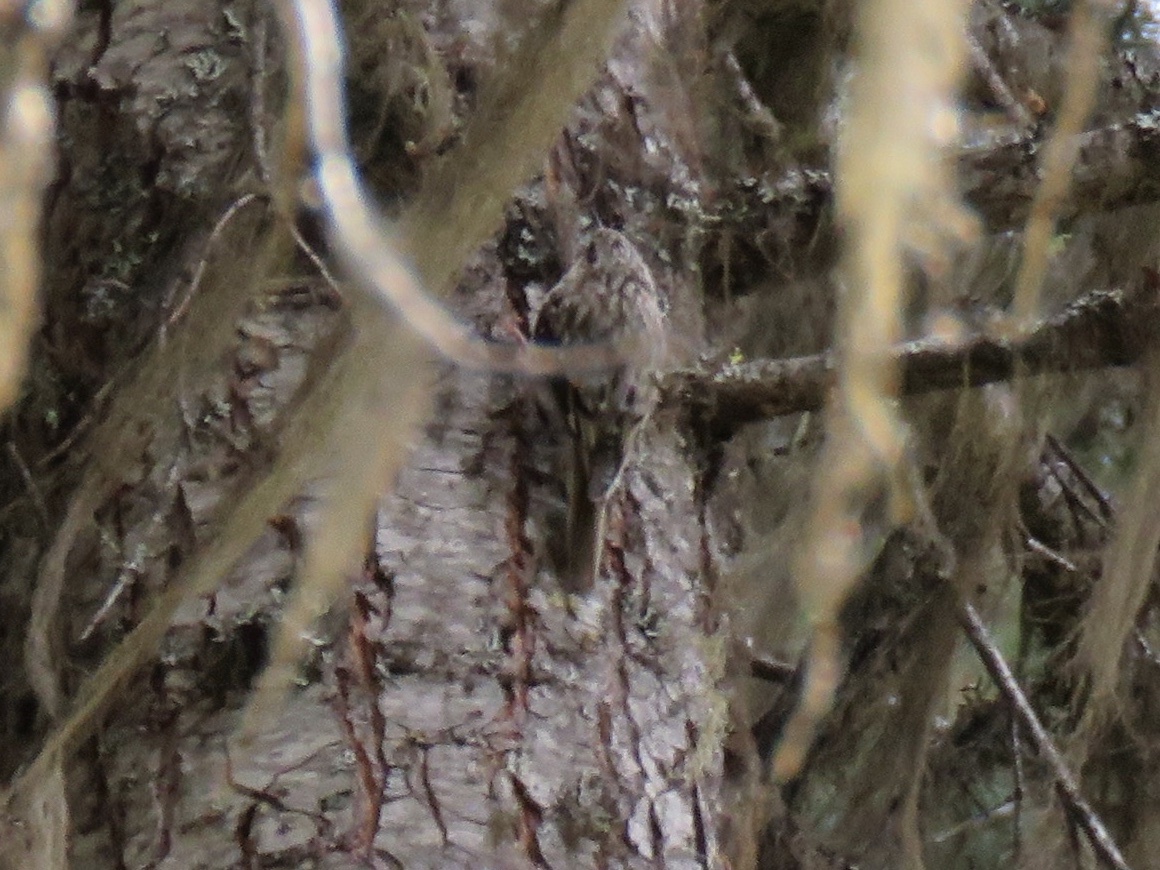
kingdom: Animalia
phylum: Chordata
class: Aves
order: Passeriformes
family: Certhiidae
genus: Certhia
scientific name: Certhia americana
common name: Brown creeper
